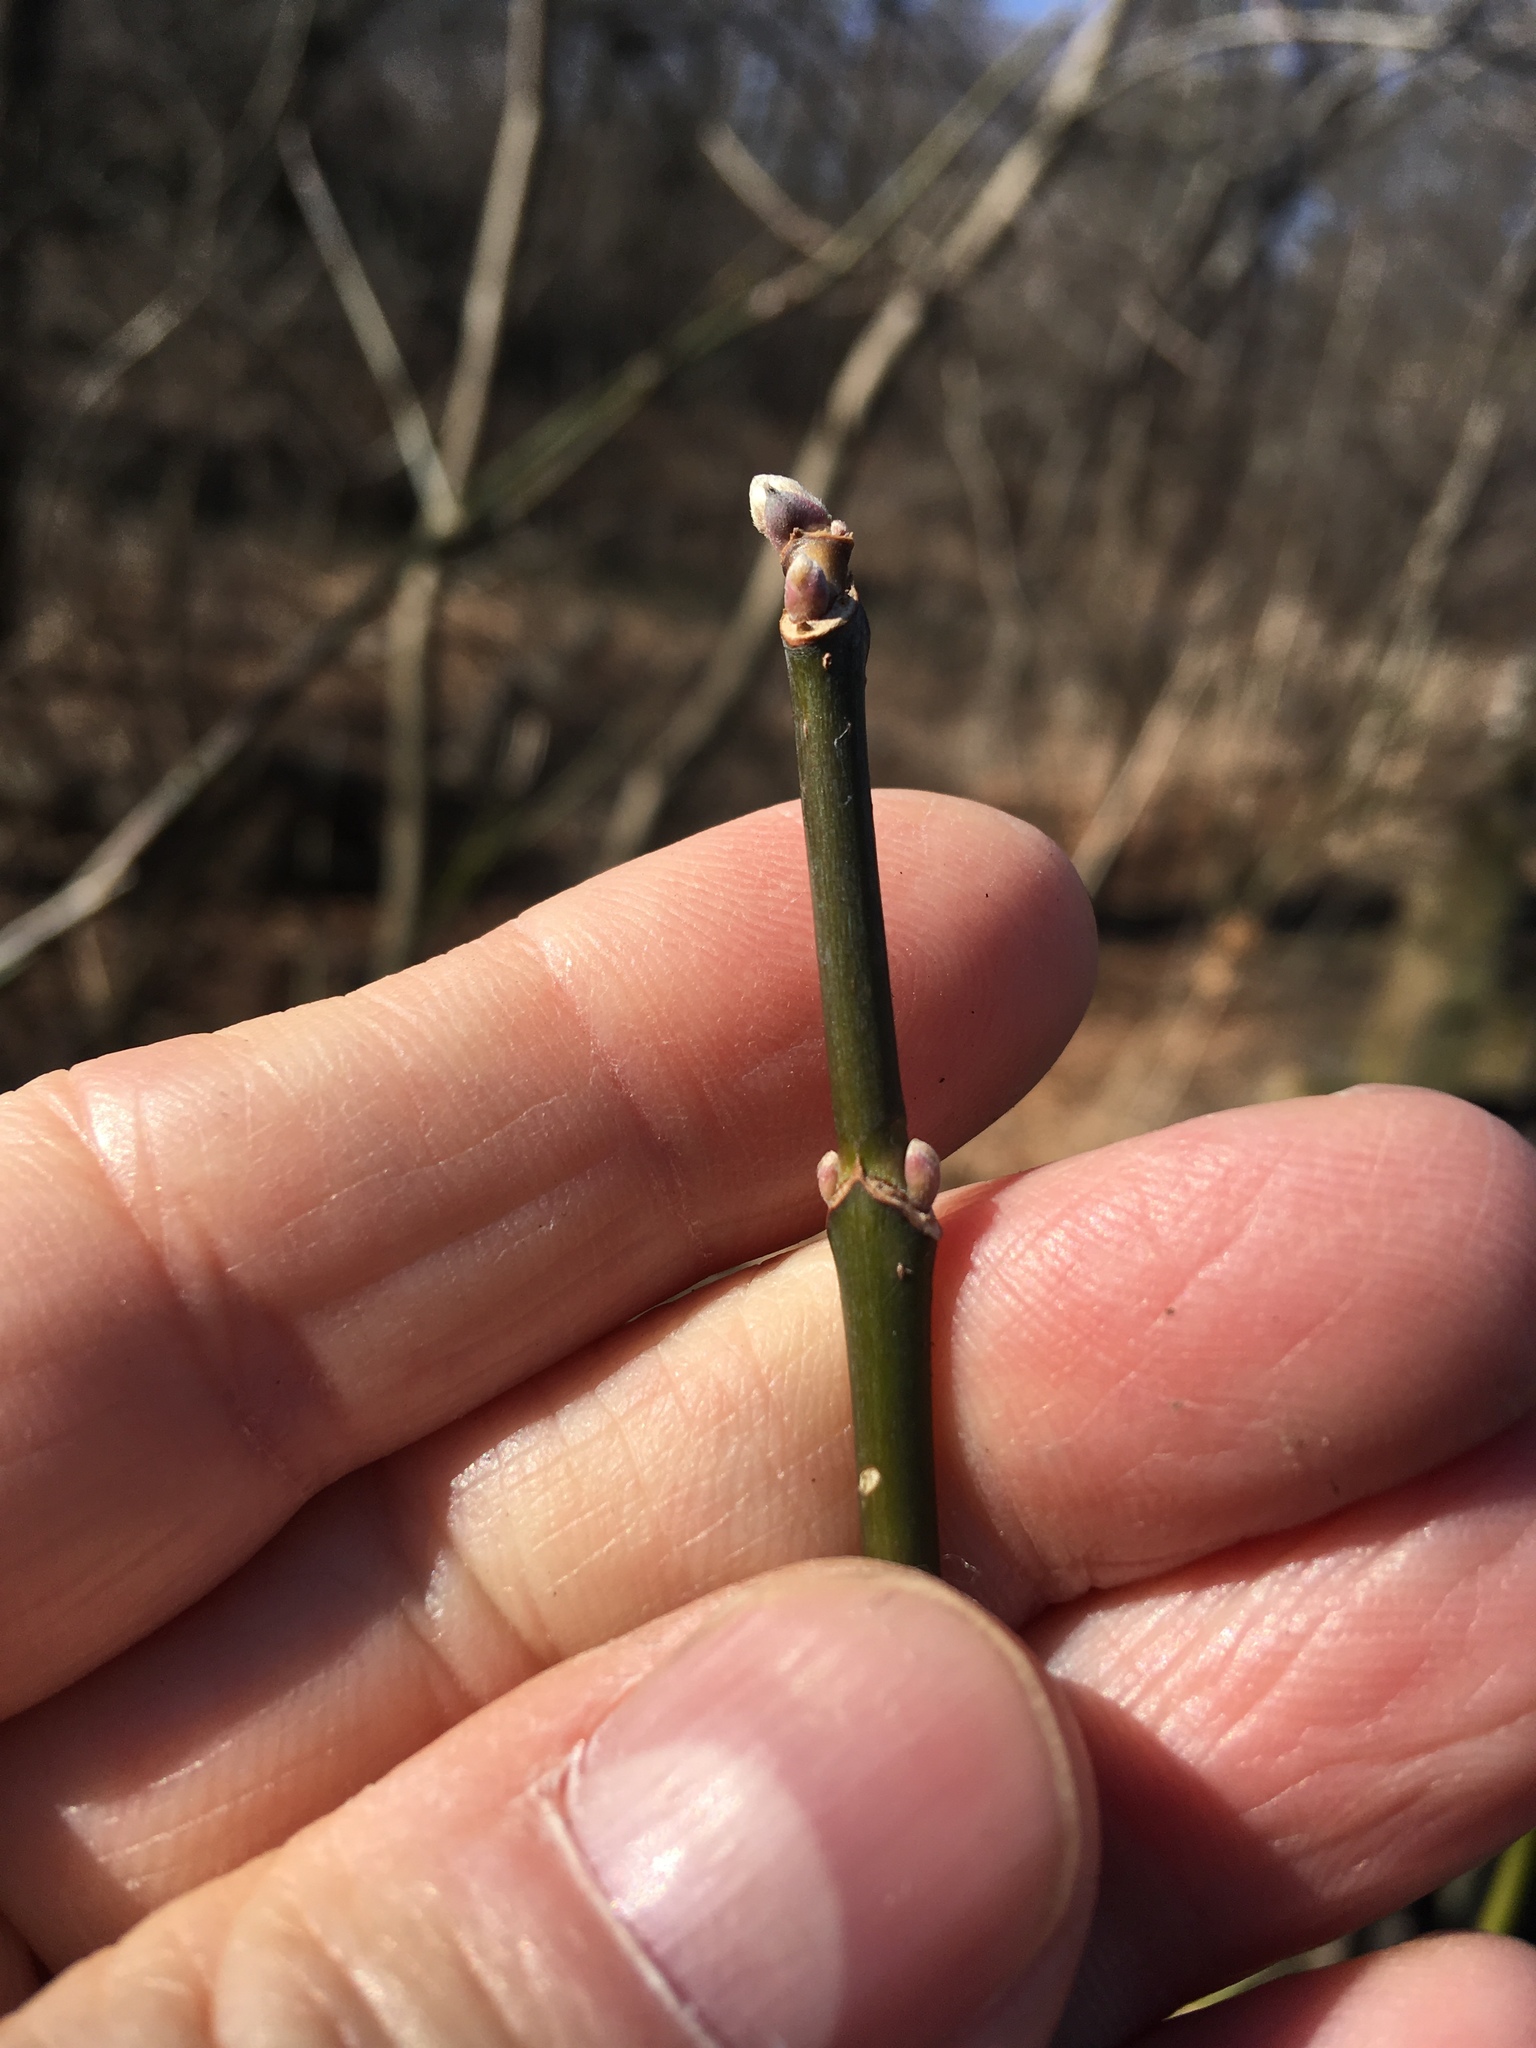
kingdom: Plantae
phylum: Tracheophyta
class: Magnoliopsida
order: Sapindales
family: Sapindaceae
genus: Acer
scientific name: Acer negundo
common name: Ashleaf maple
